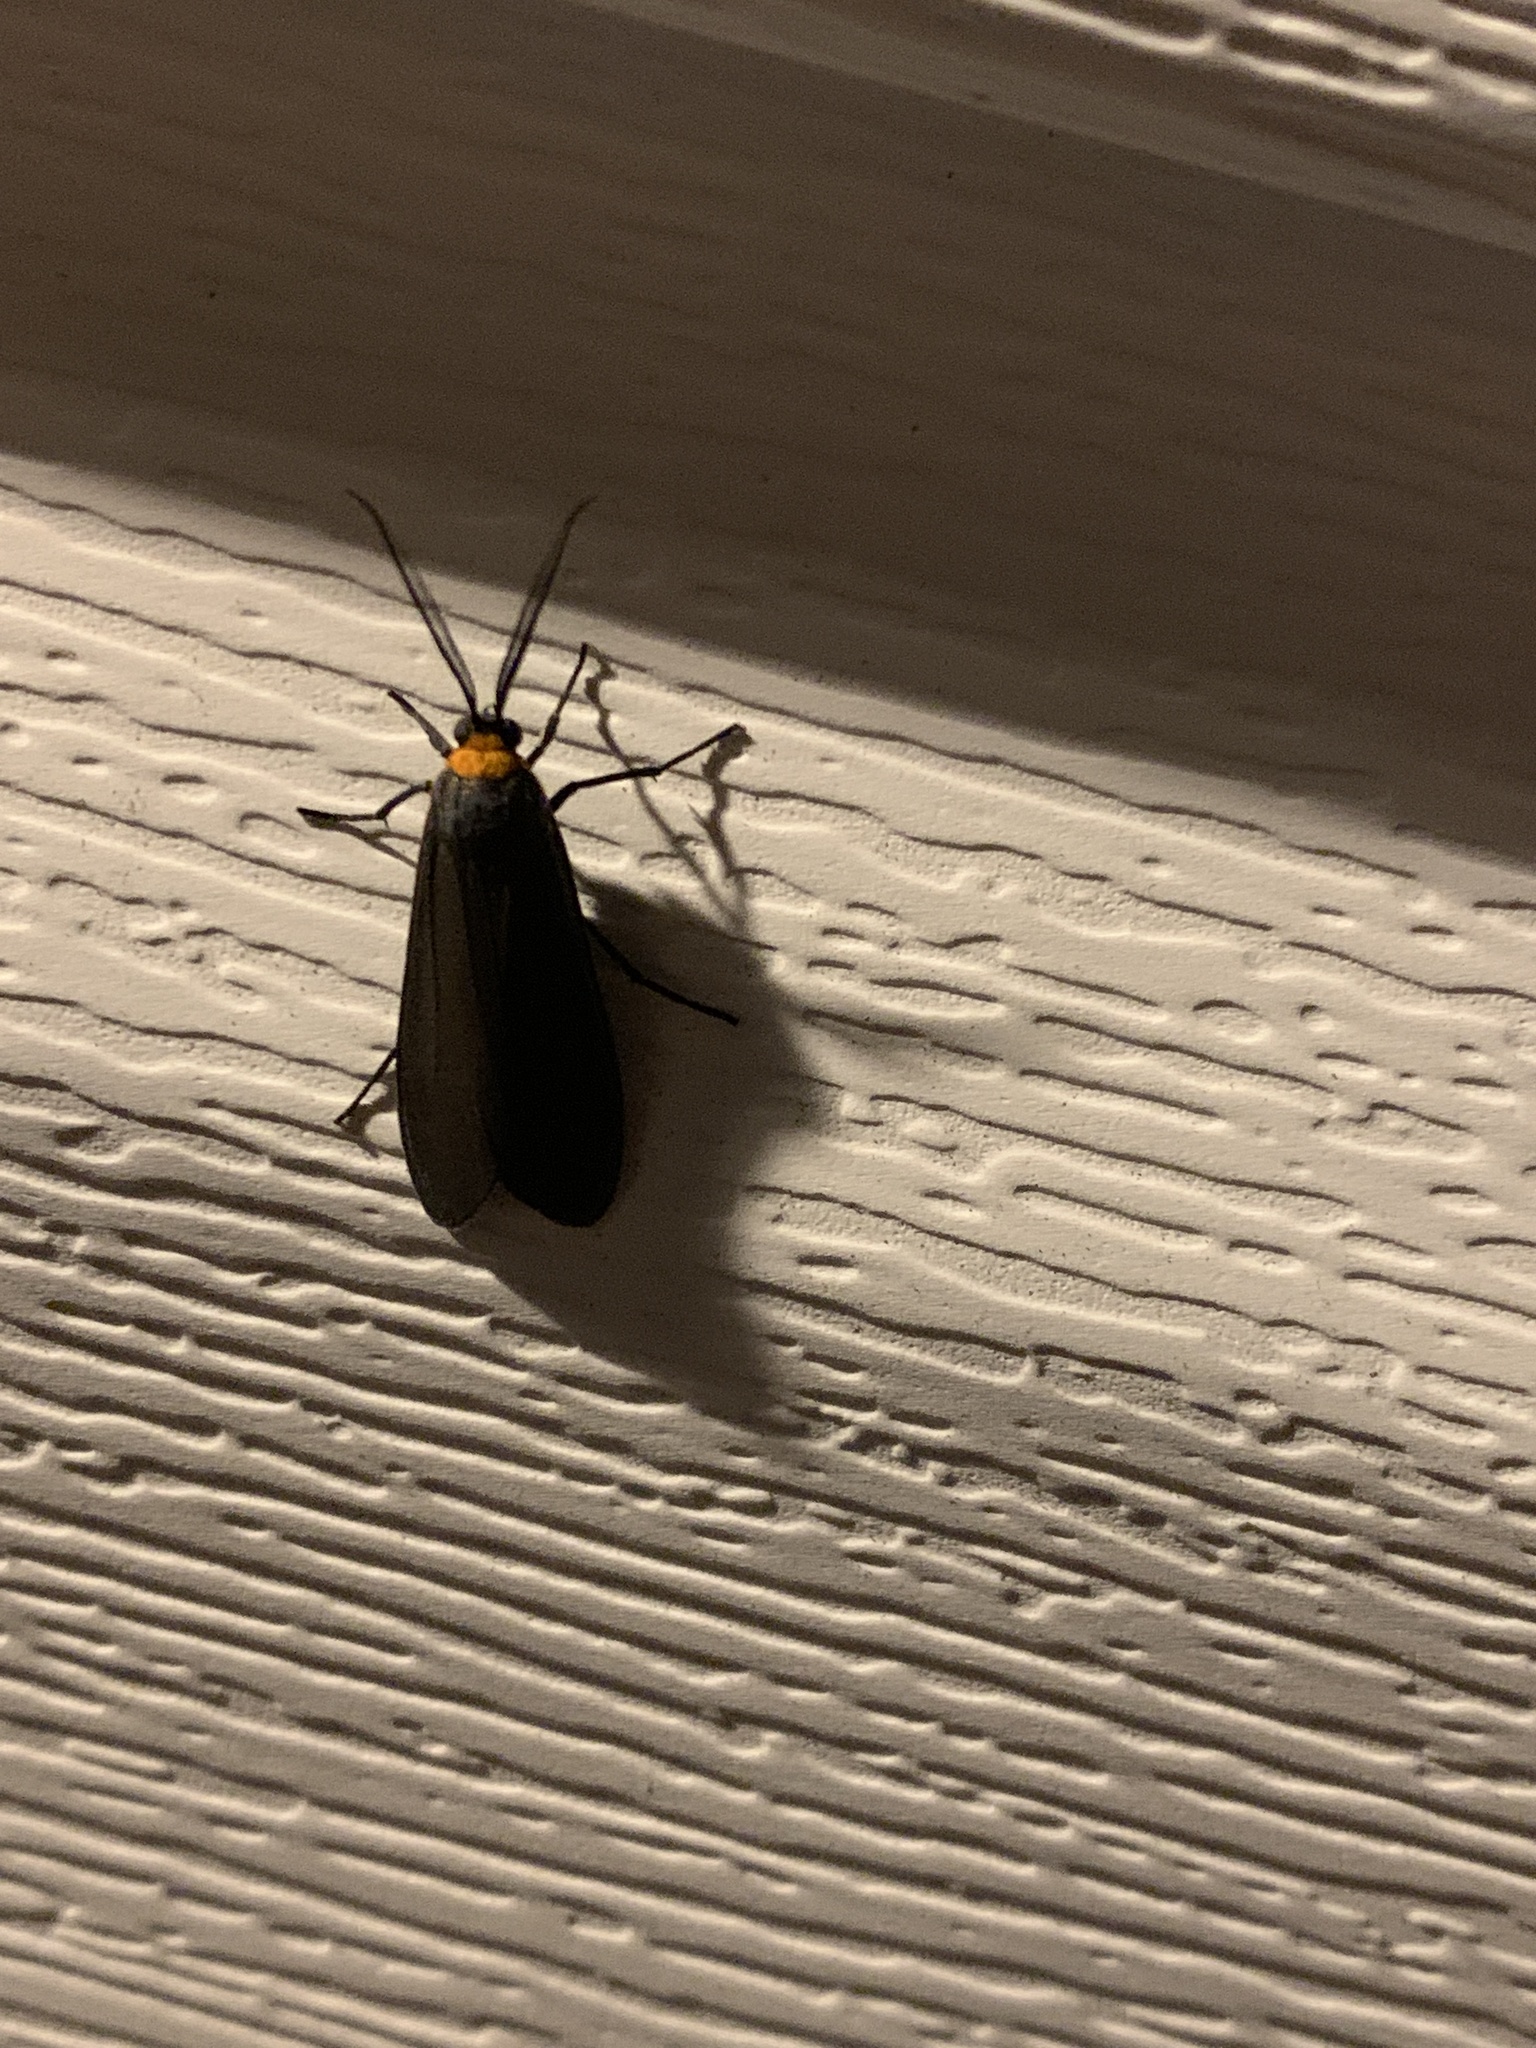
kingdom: Animalia
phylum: Arthropoda
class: Insecta
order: Lepidoptera
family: Erebidae
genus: Cisseps
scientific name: Cisseps fulvicollis
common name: Yellow-collared scape moth
